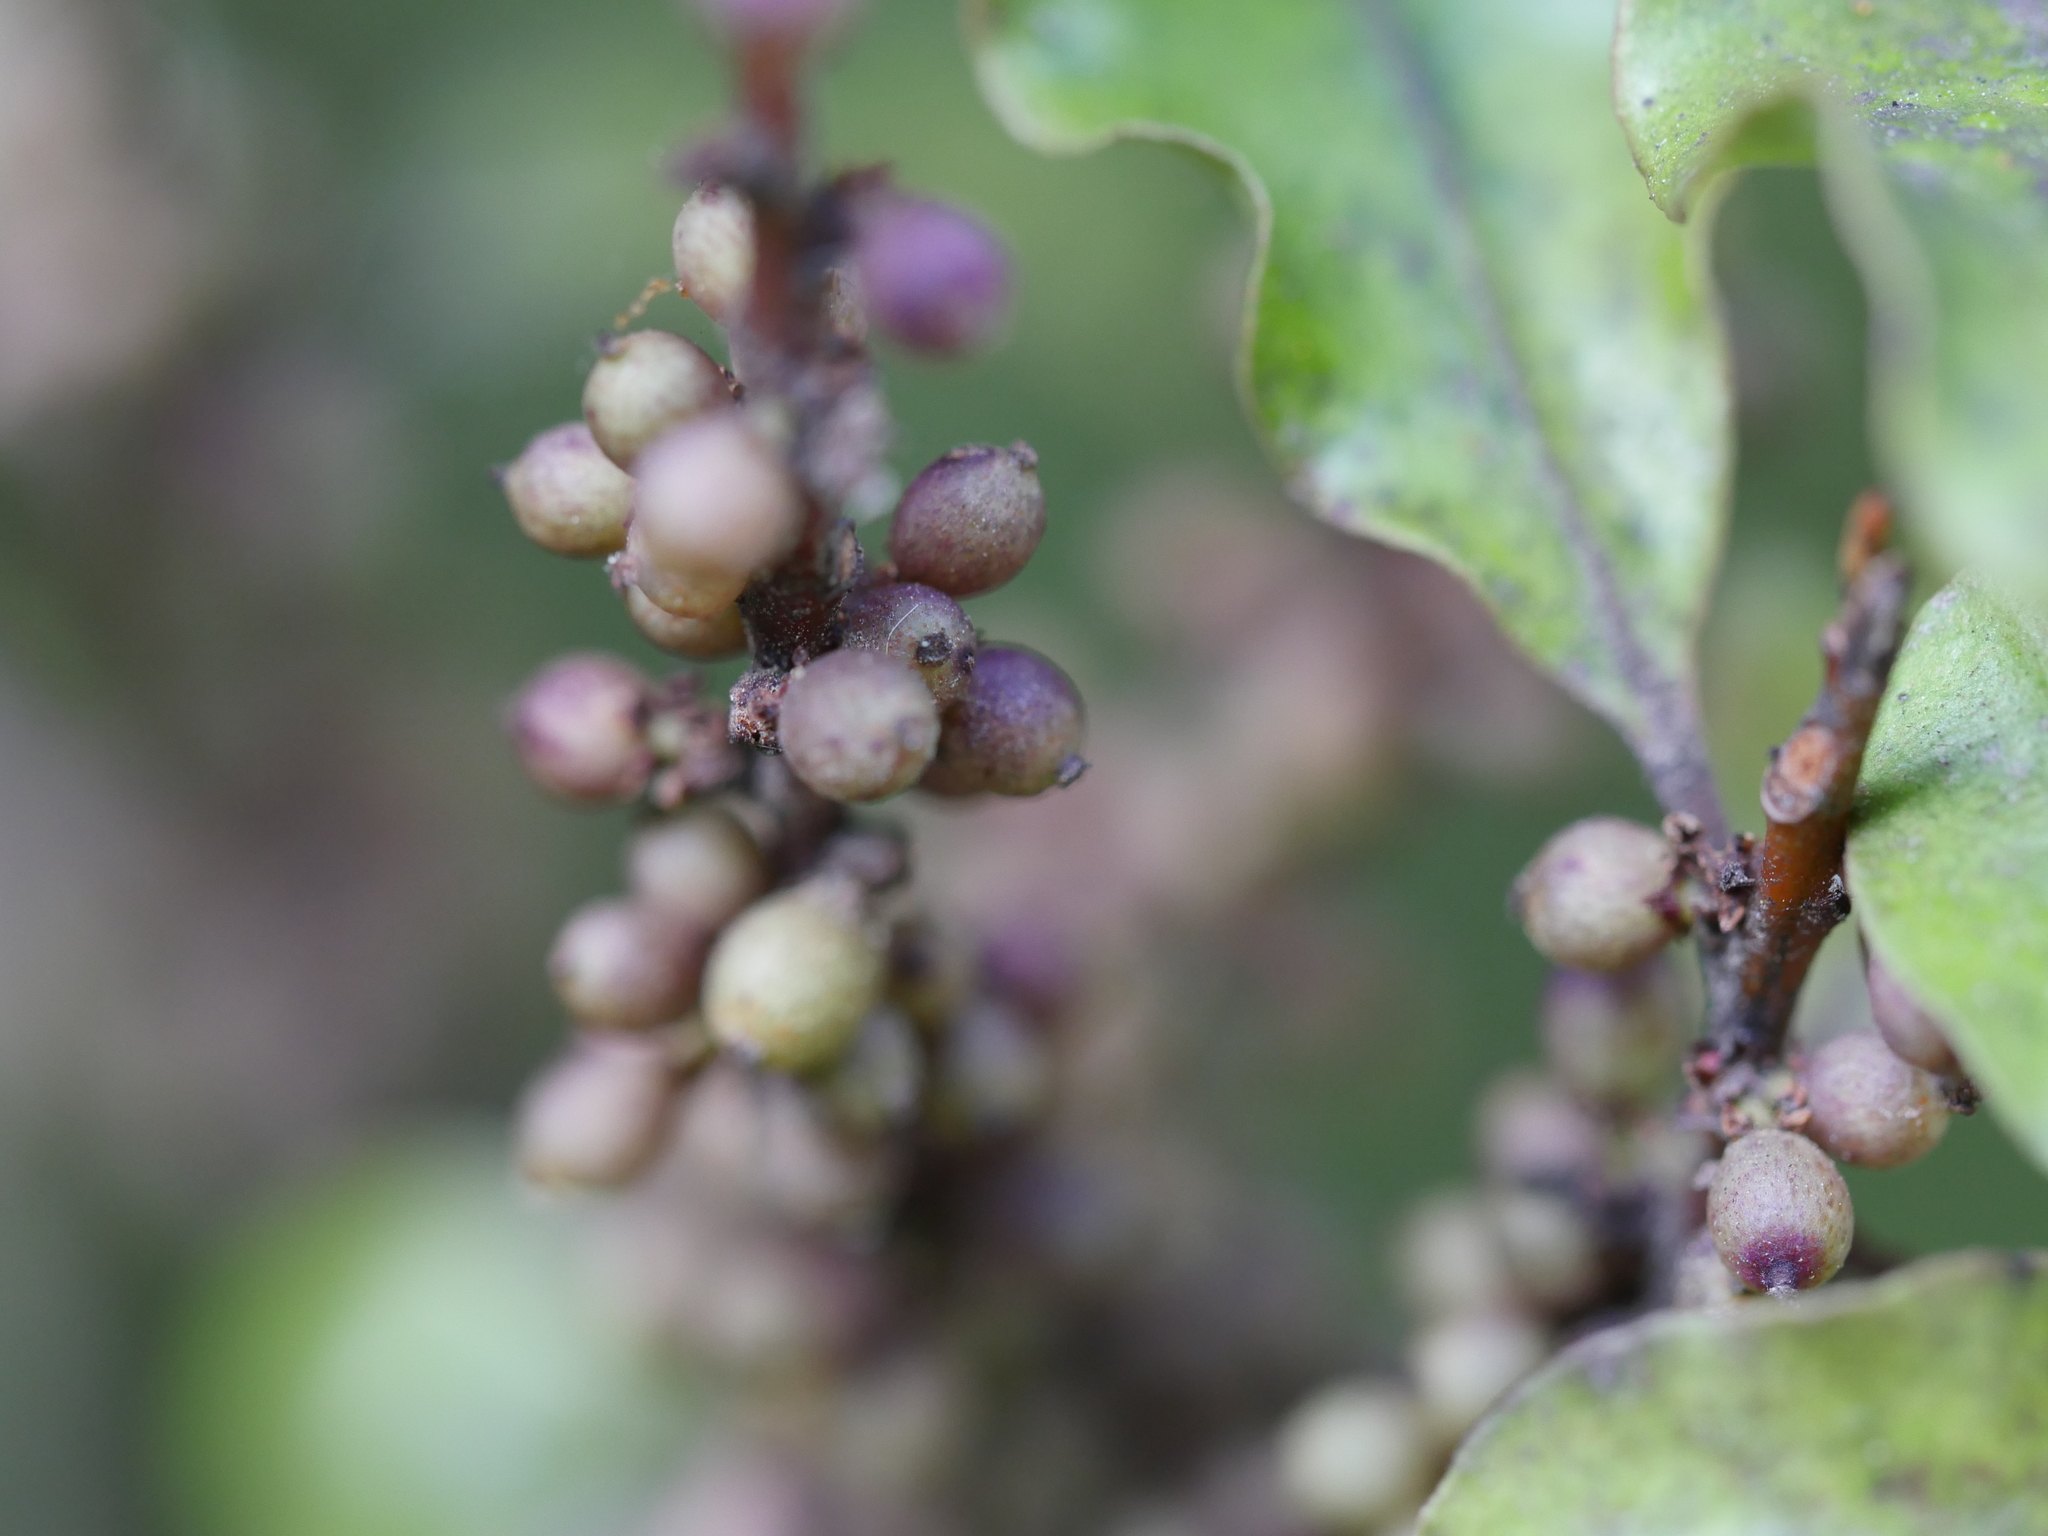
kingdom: Plantae
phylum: Tracheophyta
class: Magnoliopsida
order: Ericales
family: Primulaceae
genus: Myrsine
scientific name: Myrsine australis
